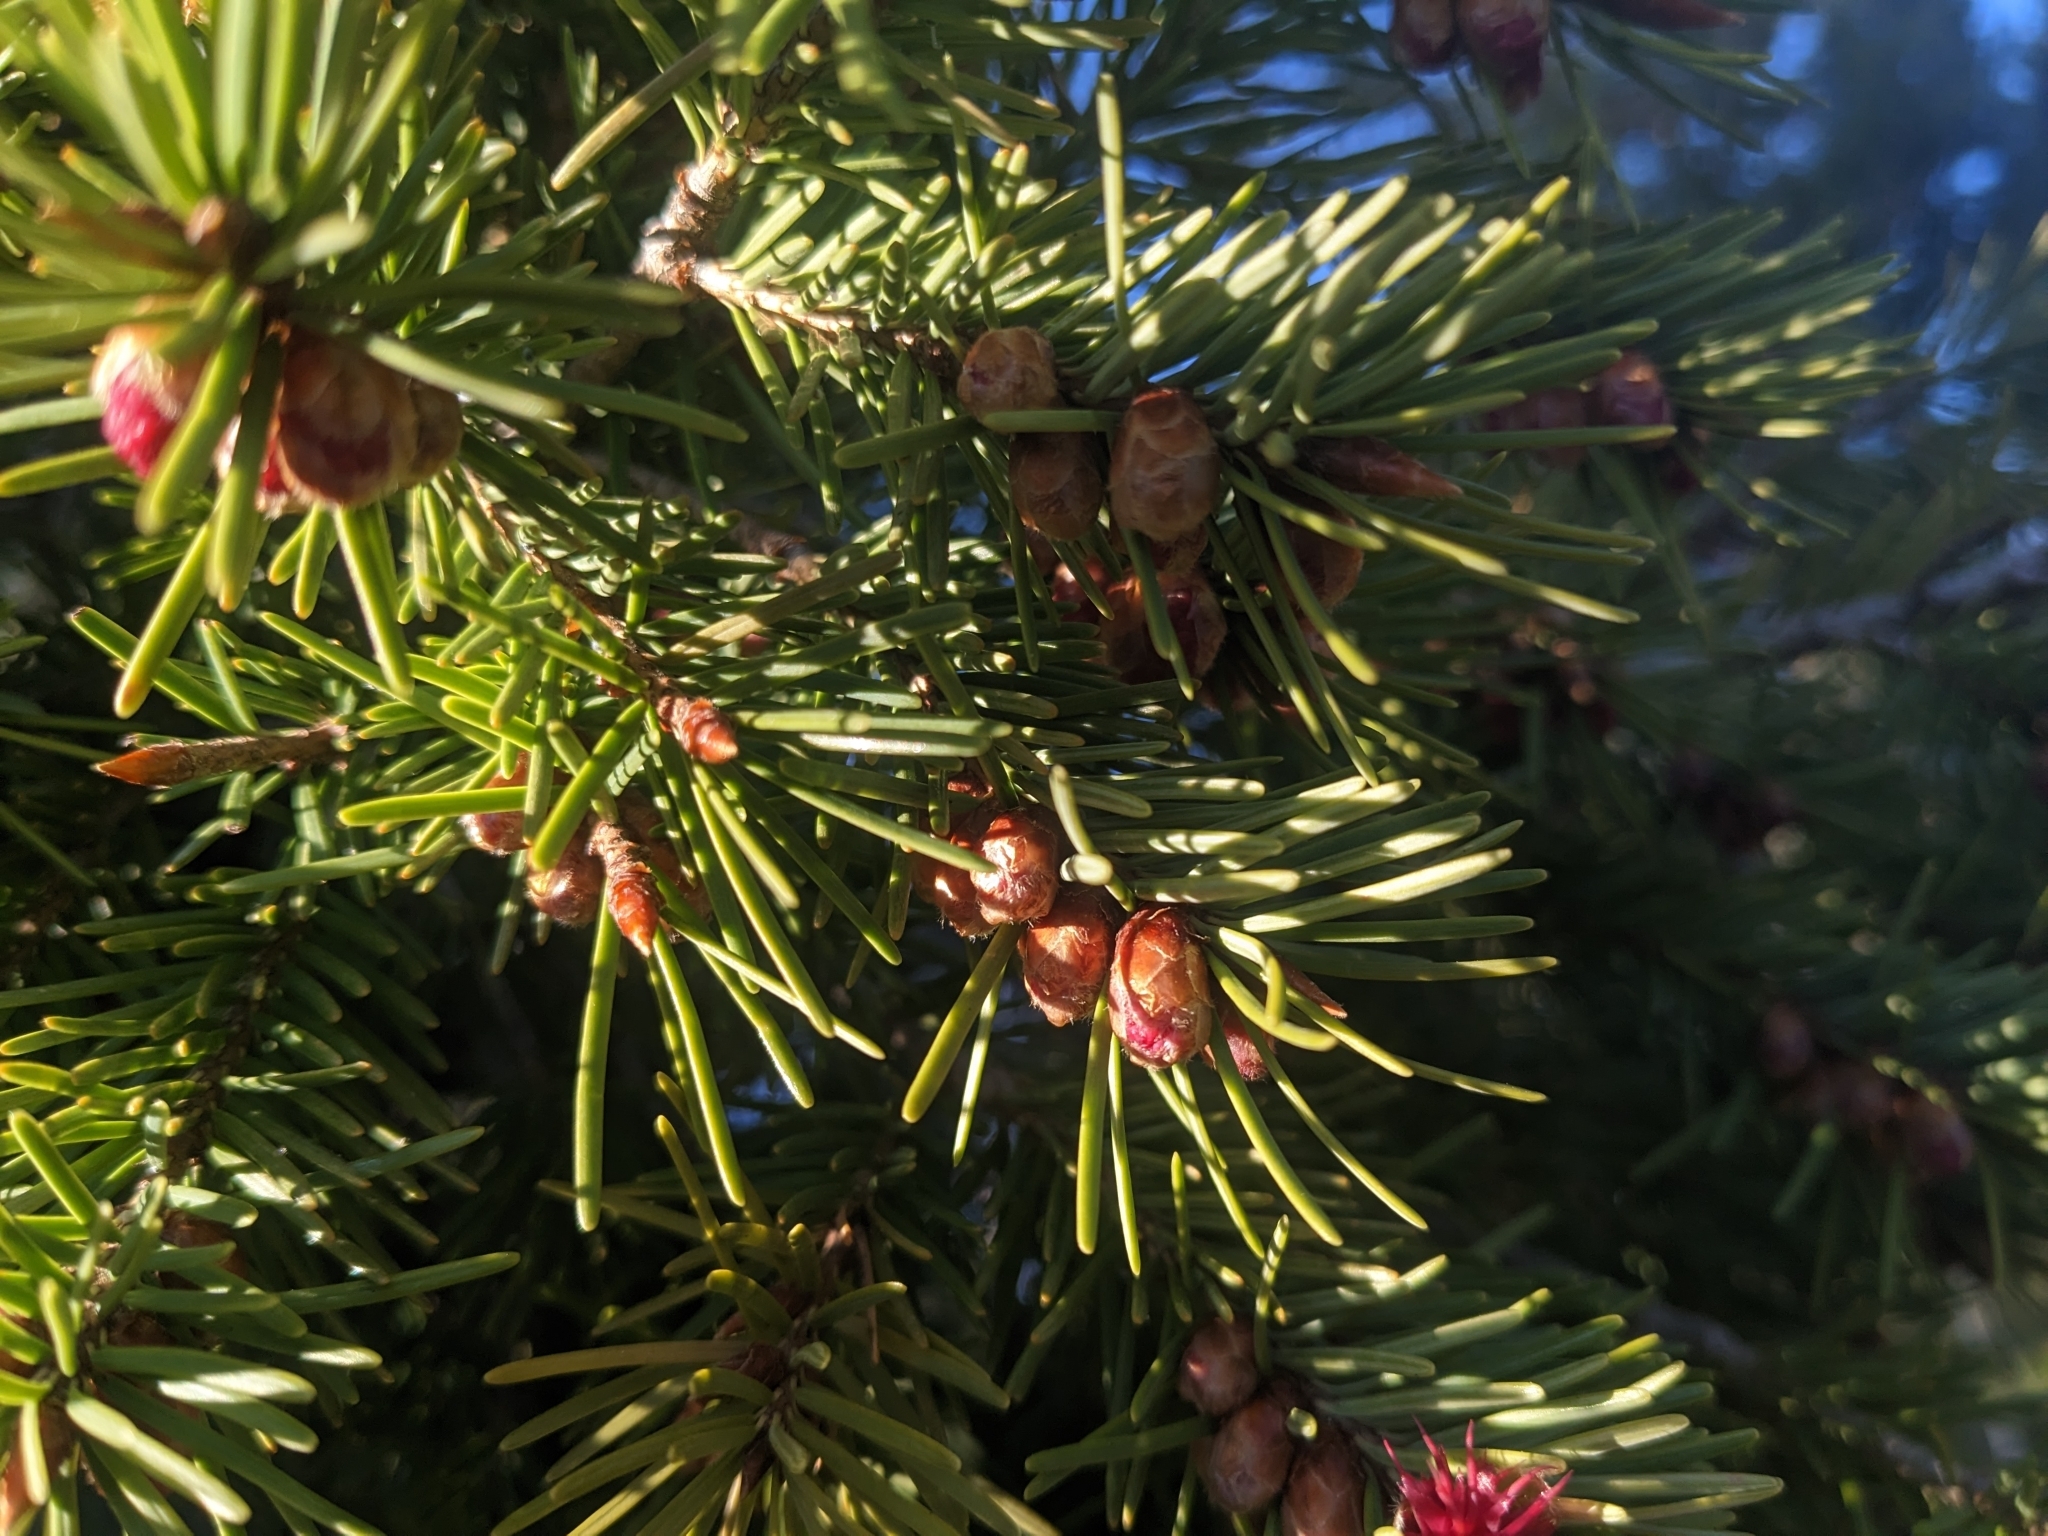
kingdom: Plantae
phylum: Tracheophyta
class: Pinopsida
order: Pinales
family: Pinaceae
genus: Pseudotsuga
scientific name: Pseudotsuga menziesii
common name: Douglas fir
